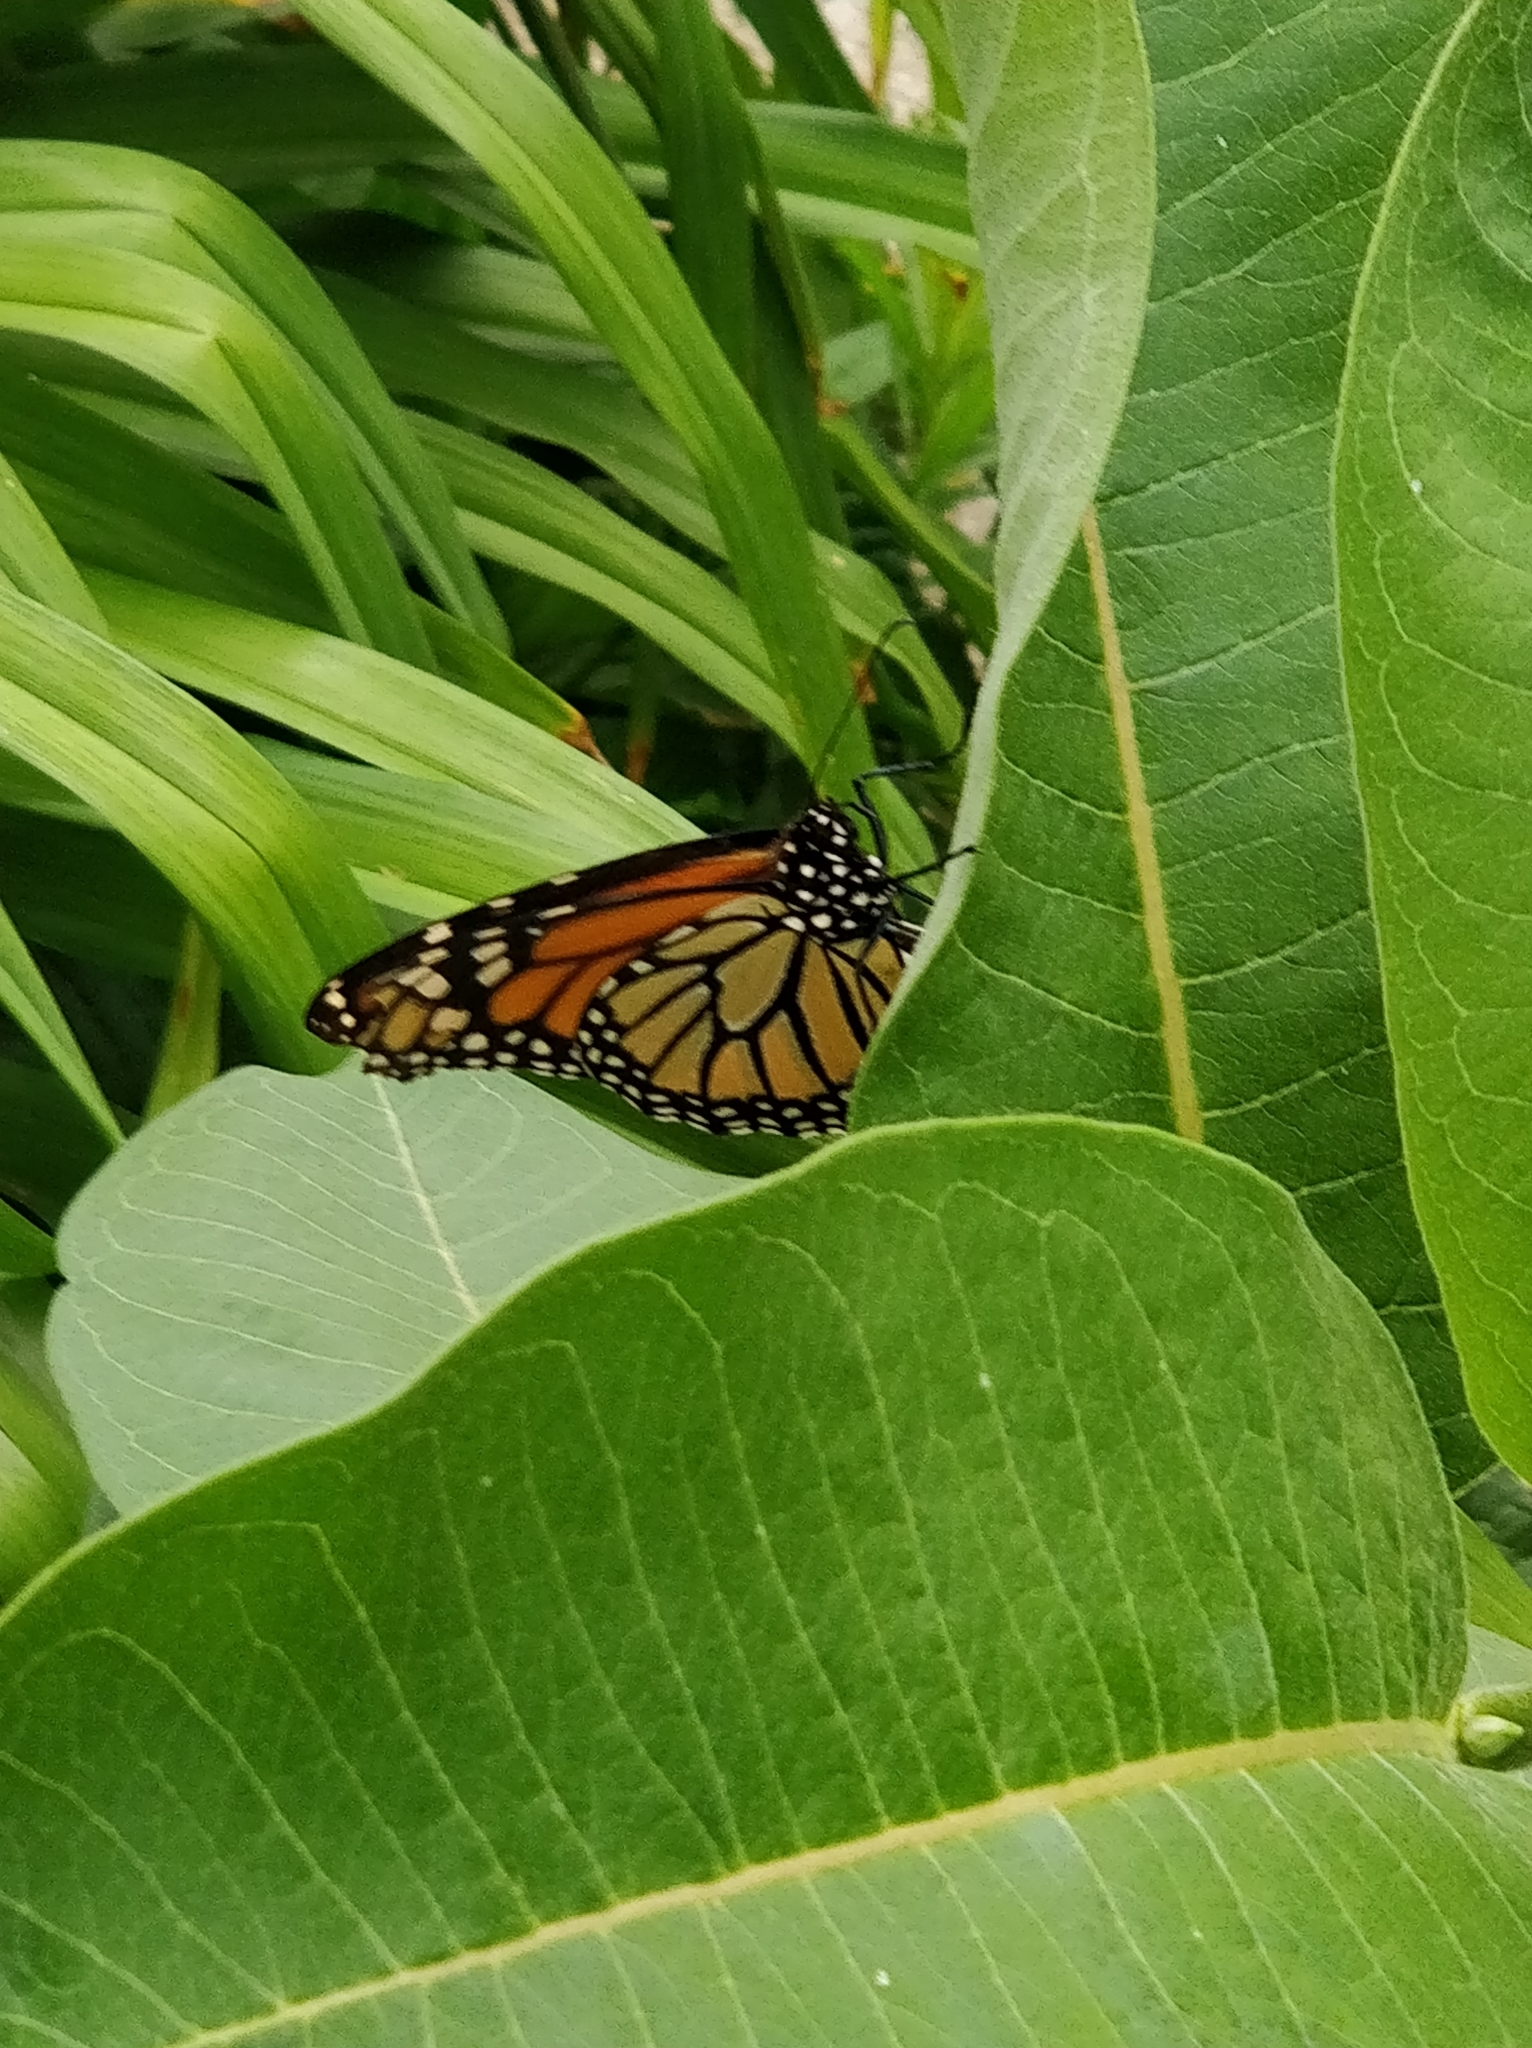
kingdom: Animalia
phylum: Arthropoda
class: Insecta
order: Lepidoptera
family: Nymphalidae
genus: Danaus
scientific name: Danaus plexippus
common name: Monarch
